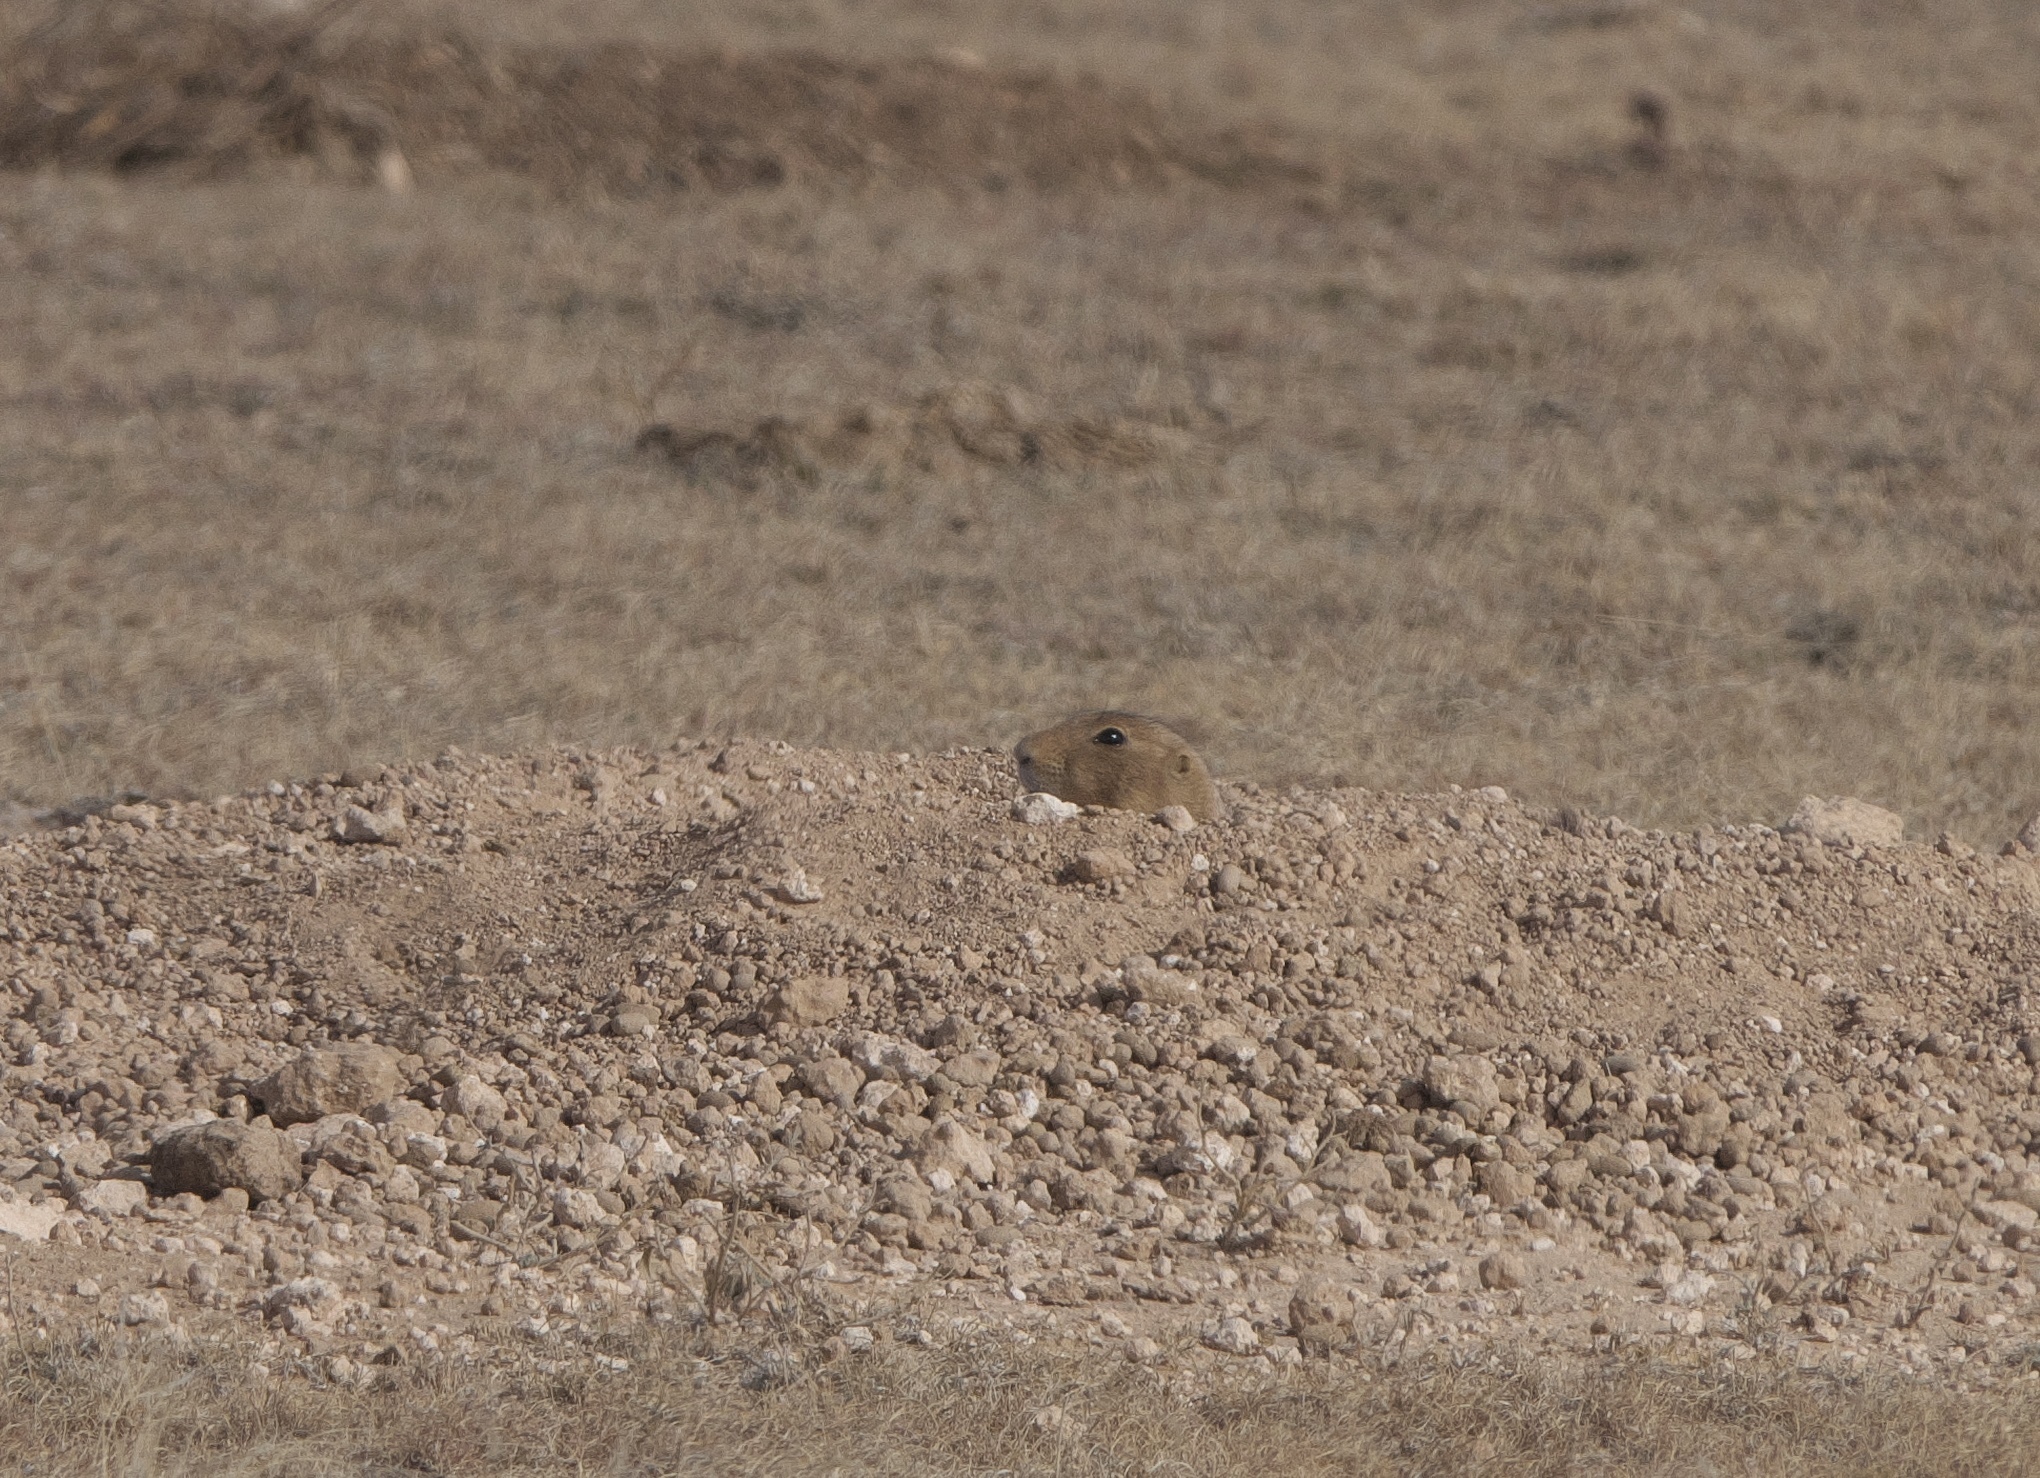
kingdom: Animalia
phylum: Chordata
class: Mammalia
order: Rodentia
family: Sciuridae
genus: Cynomys
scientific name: Cynomys ludovicianus
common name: Black-tailed prairie dog
